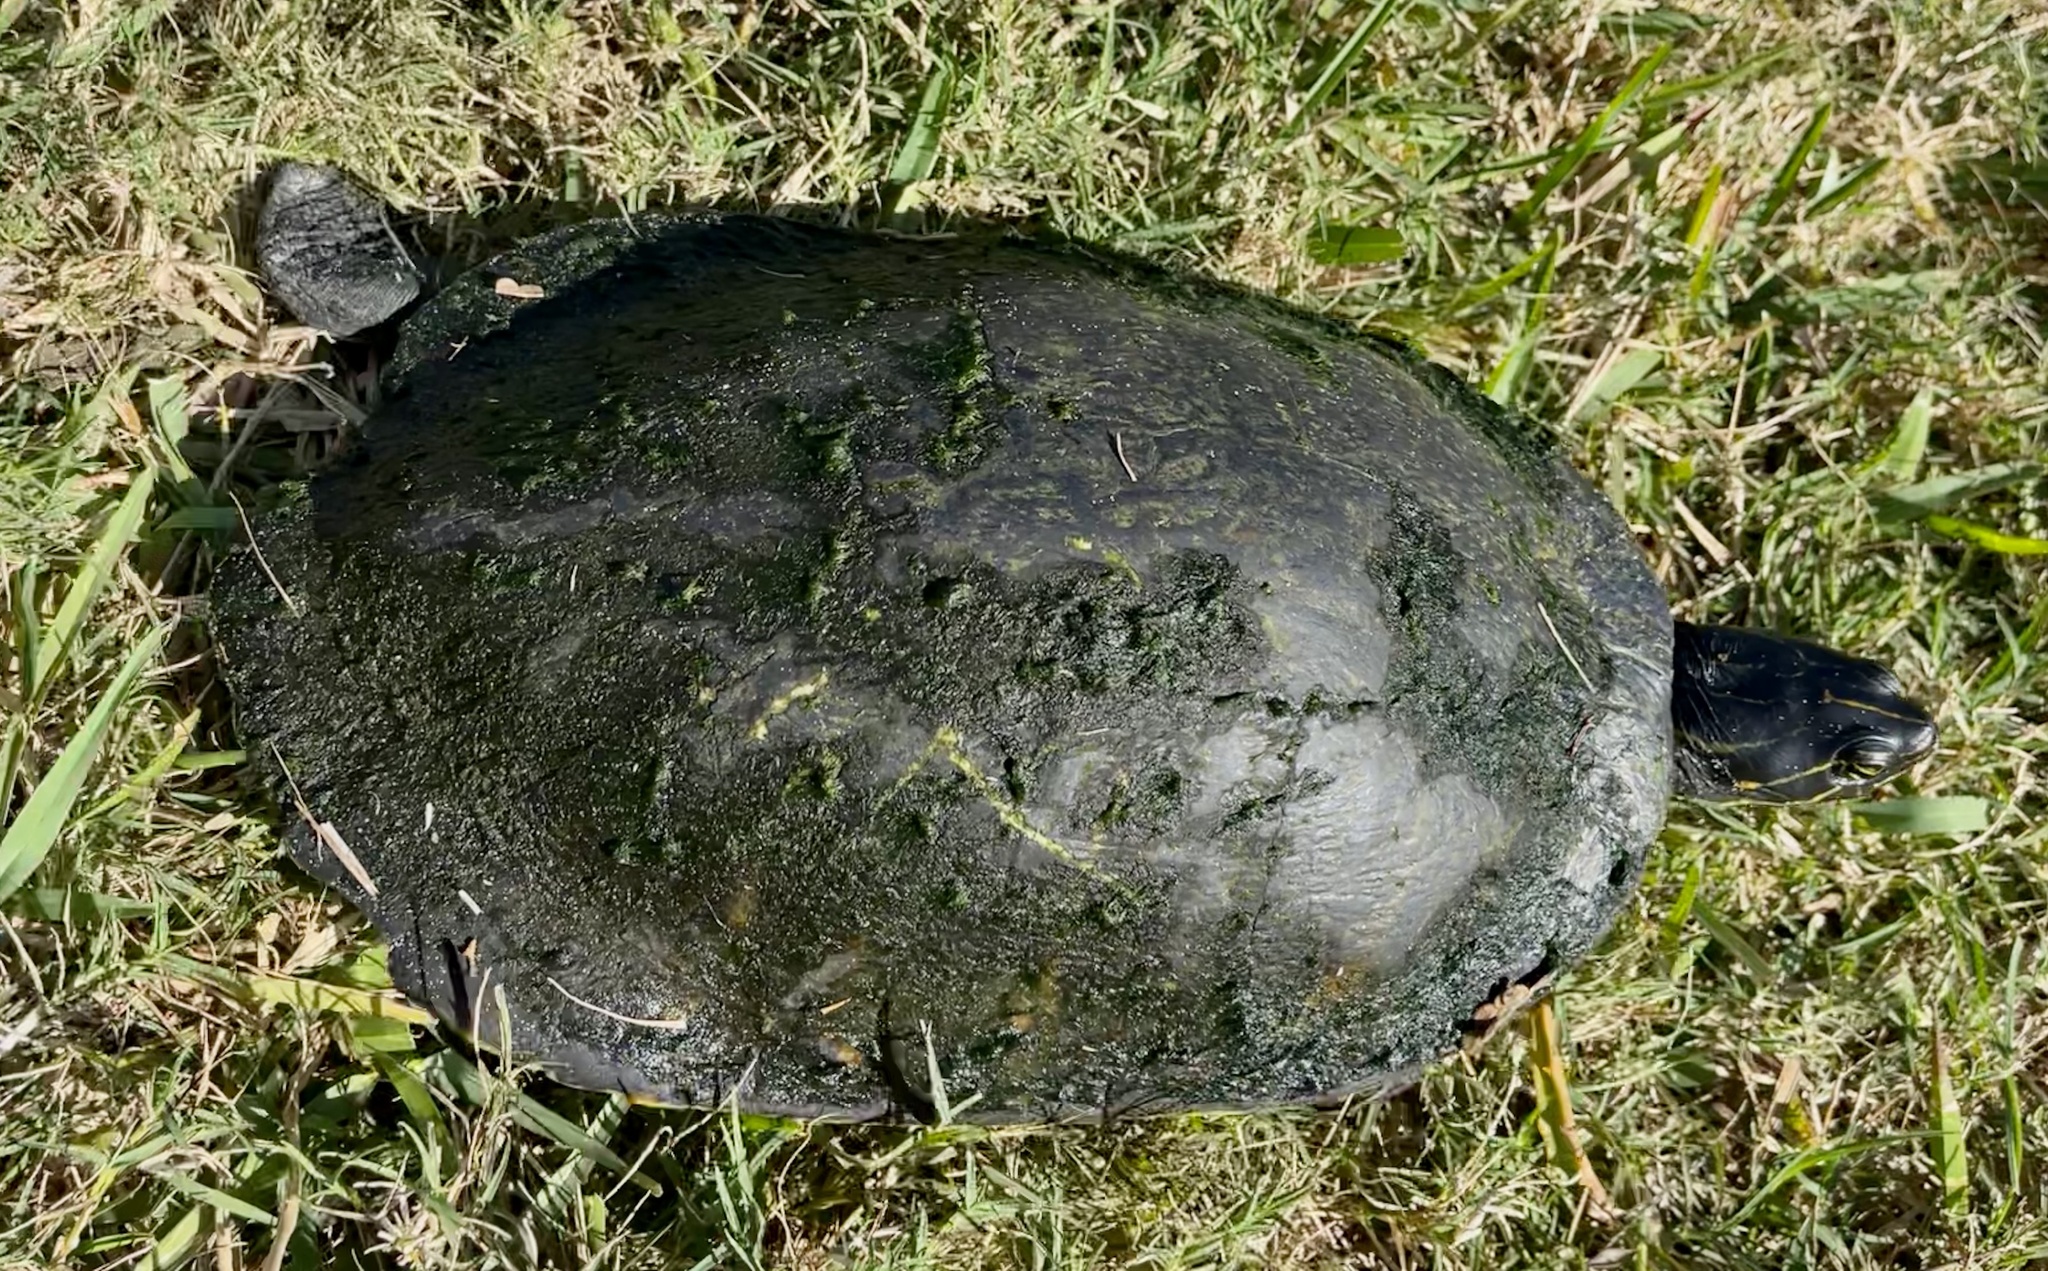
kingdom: Animalia
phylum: Chordata
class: Testudines
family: Emydidae
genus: Pseudemys
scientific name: Pseudemys peninsularis
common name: Peninsula cooter
